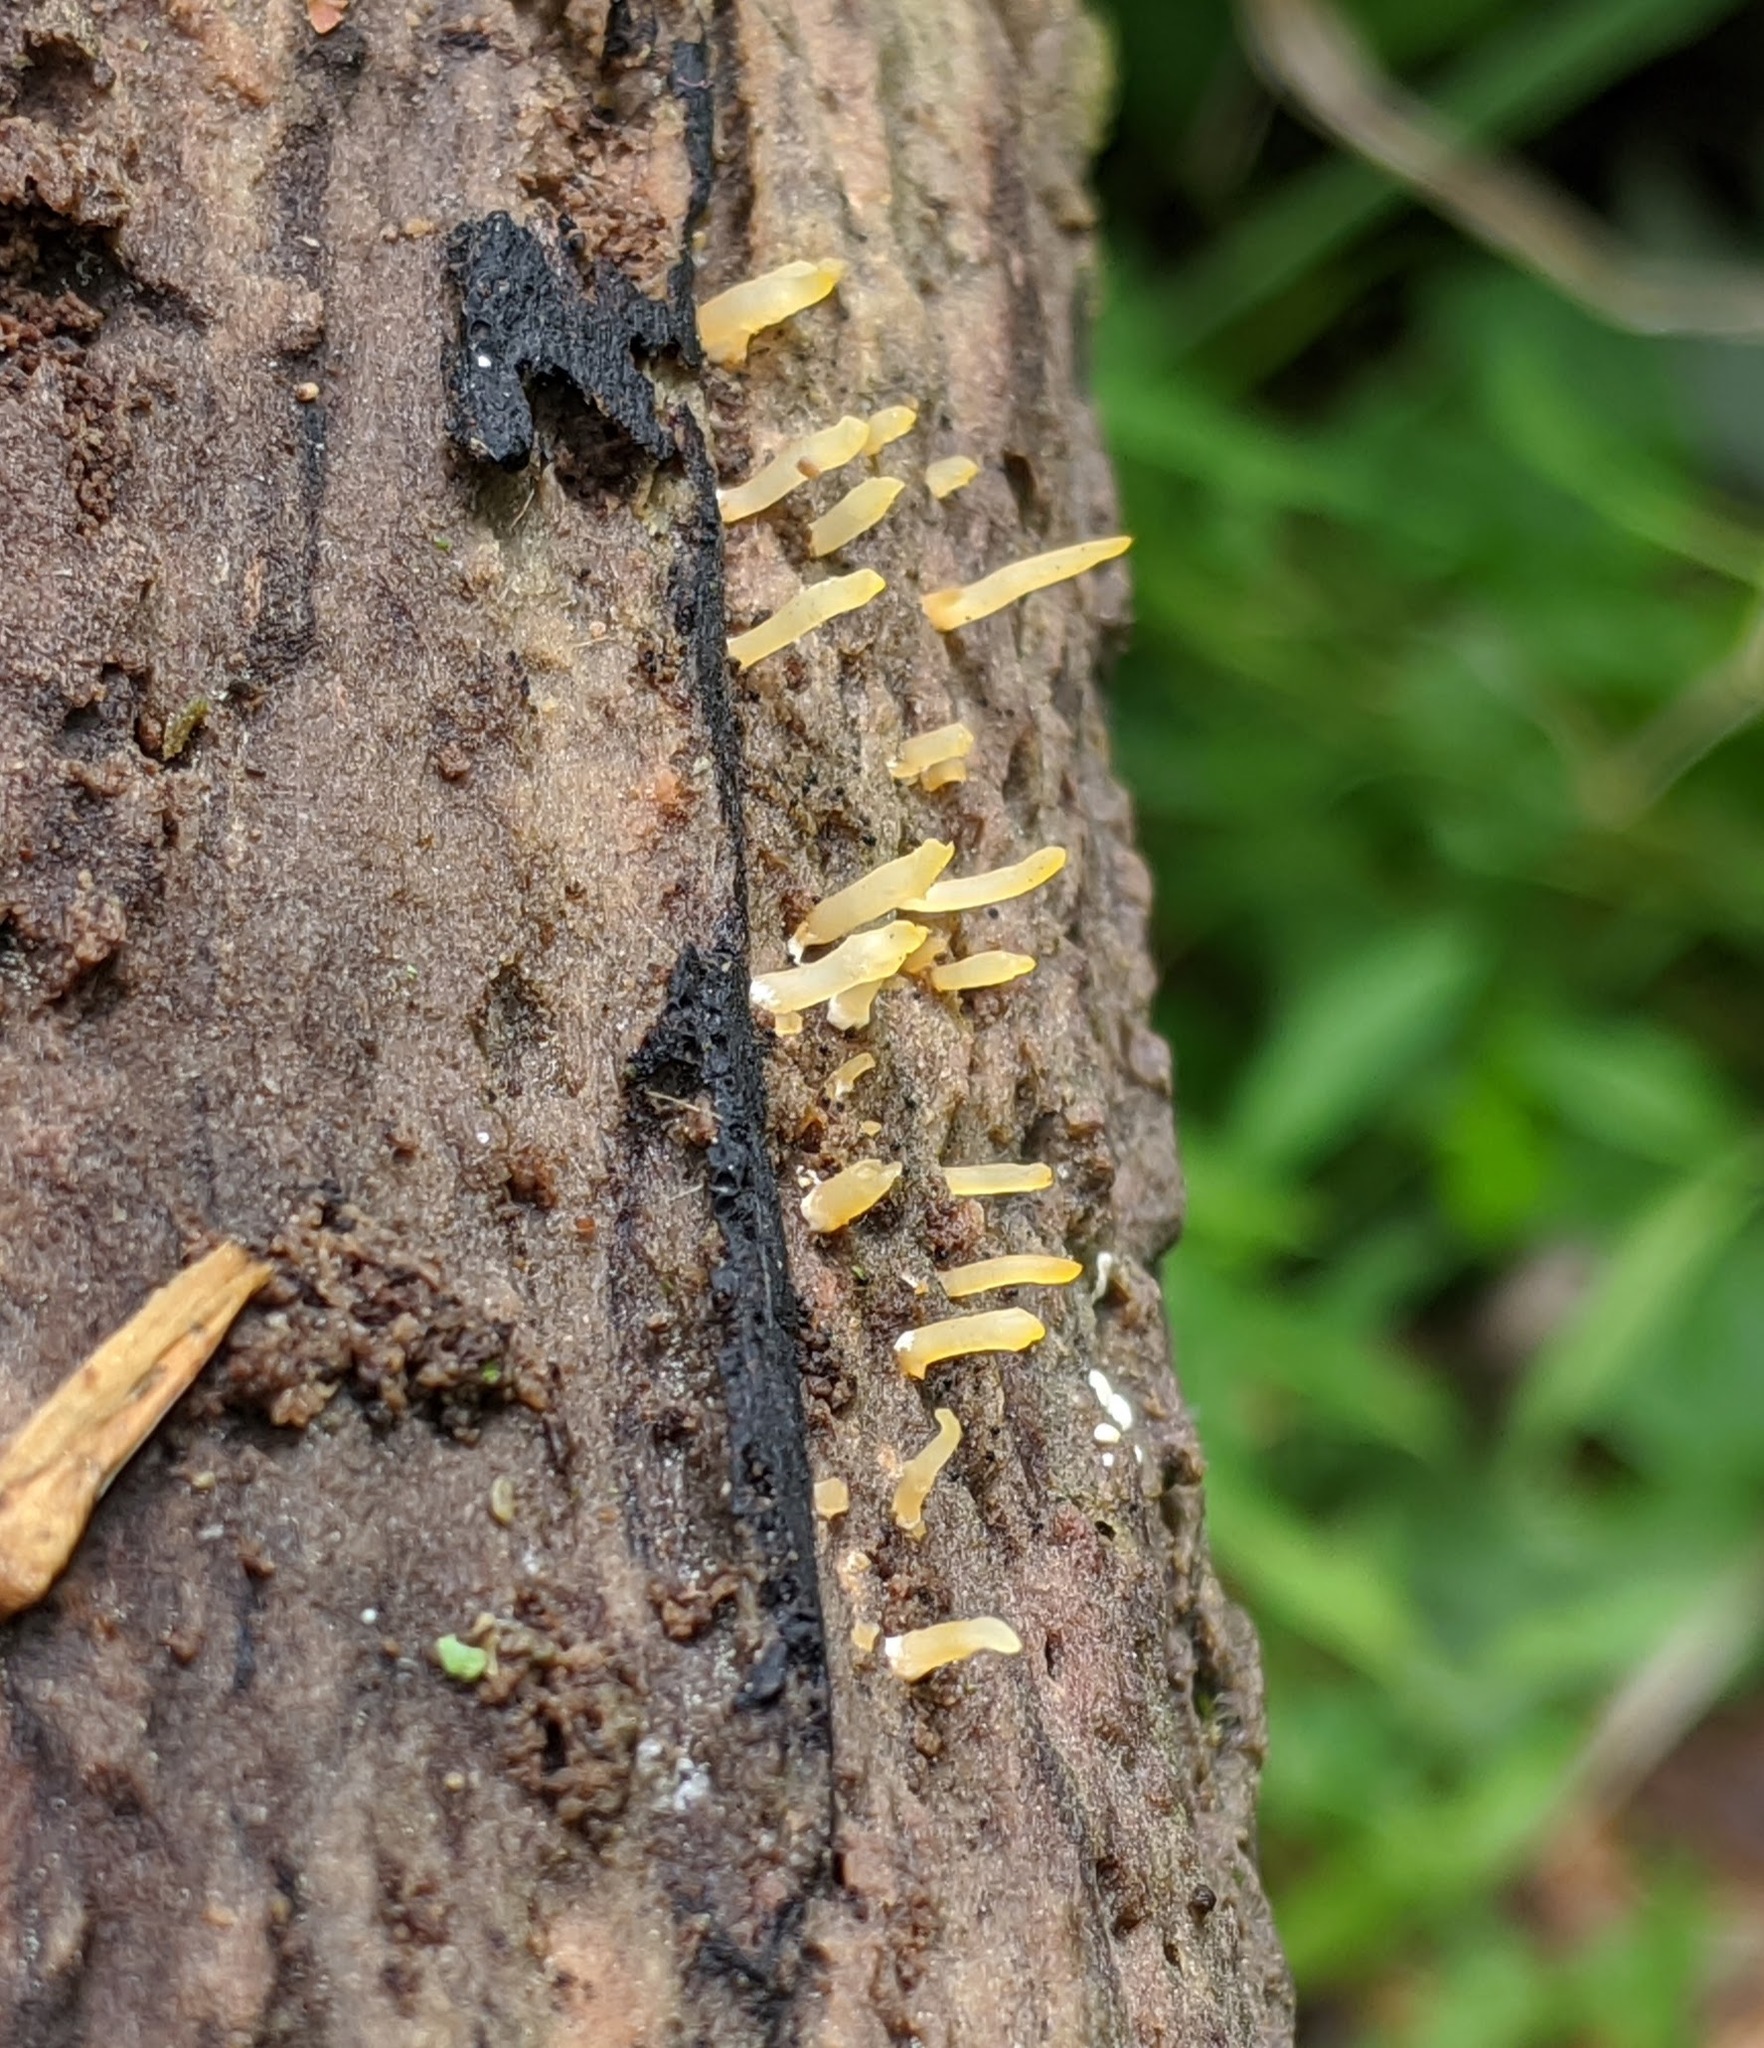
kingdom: Fungi
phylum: Basidiomycota
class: Dacrymycetes
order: Dacrymycetales
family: Dacrymycetaceae
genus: Calocera
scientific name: Calocera cornea
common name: Small stagshorn
